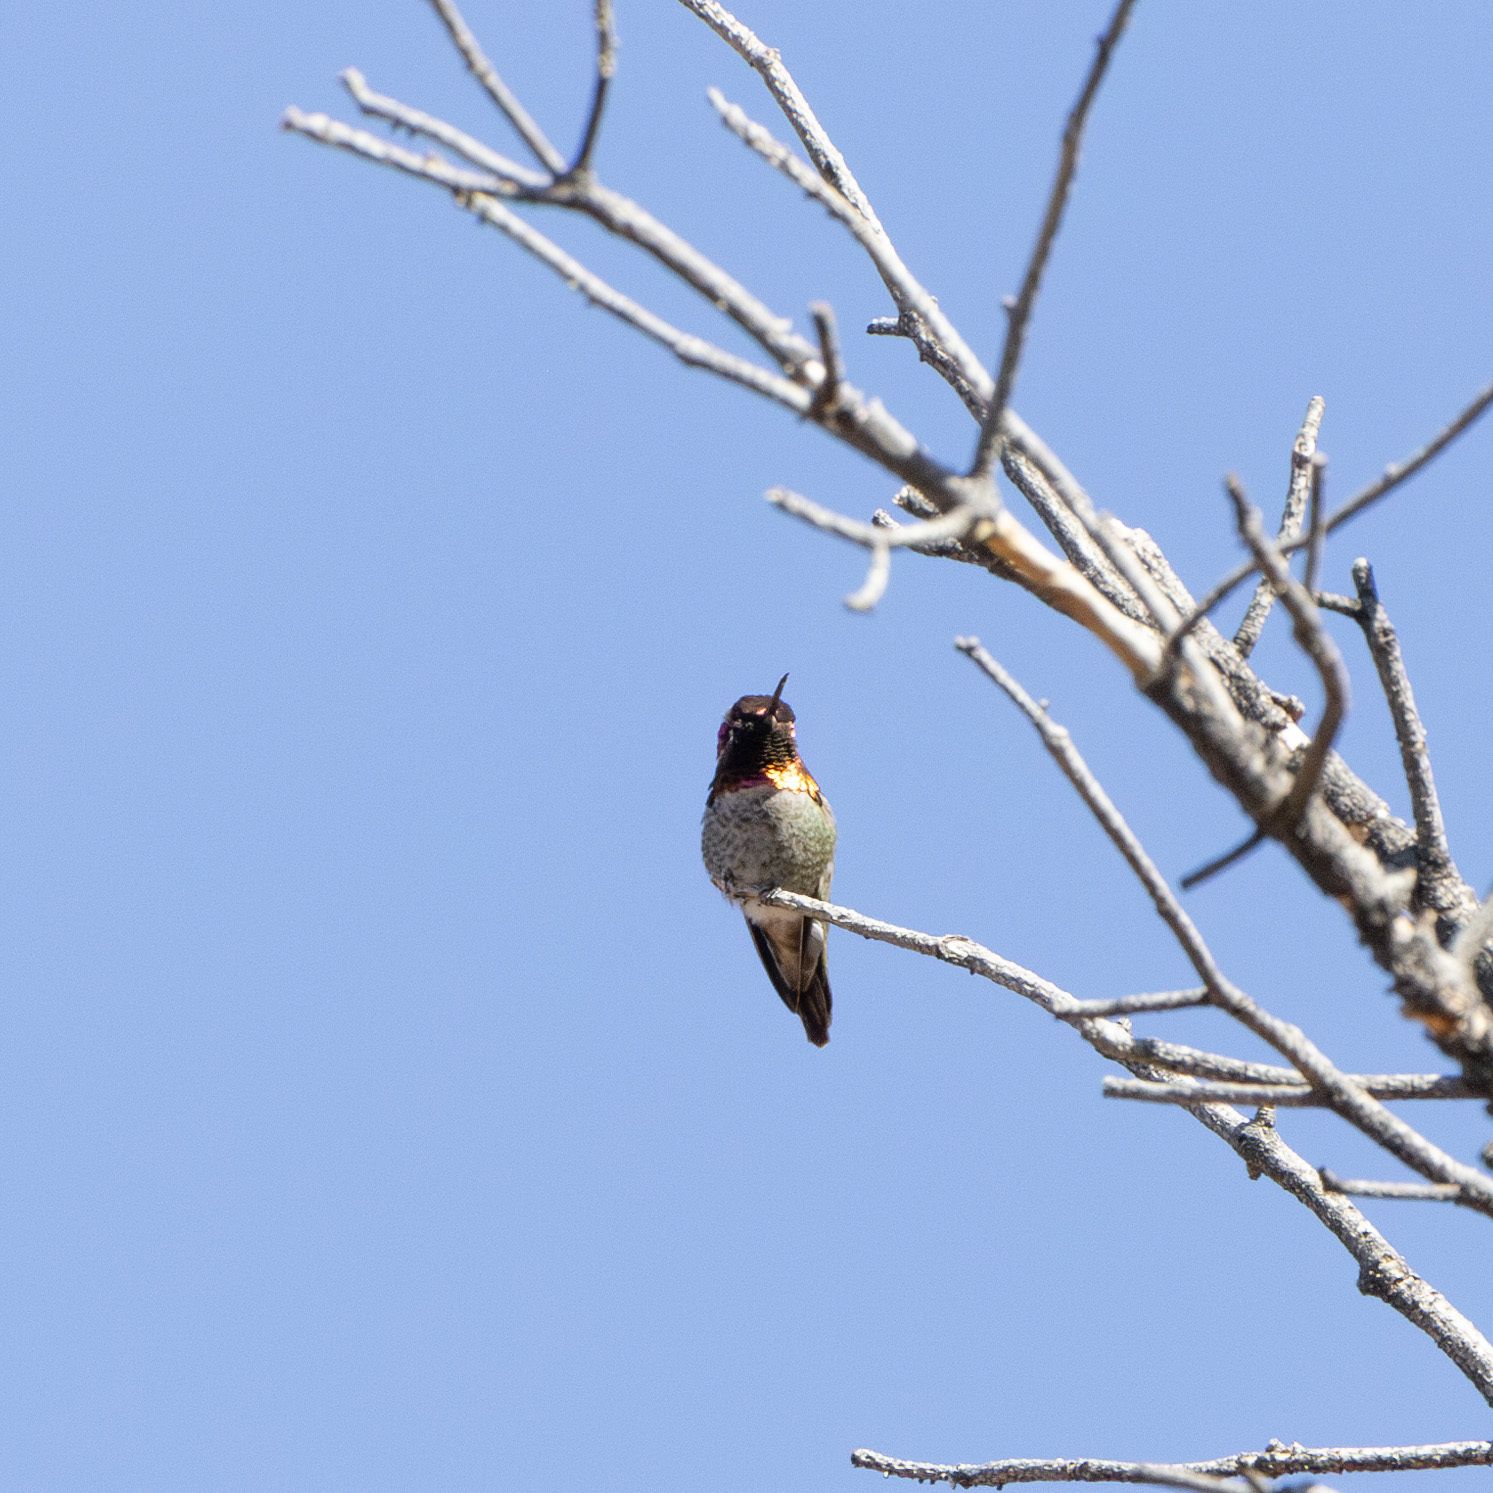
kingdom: Animalia
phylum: Chordata
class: Aves
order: Apodiformes
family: Trochilidae
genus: Calypte
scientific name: Calypte anna
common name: Anna's hummingbird
